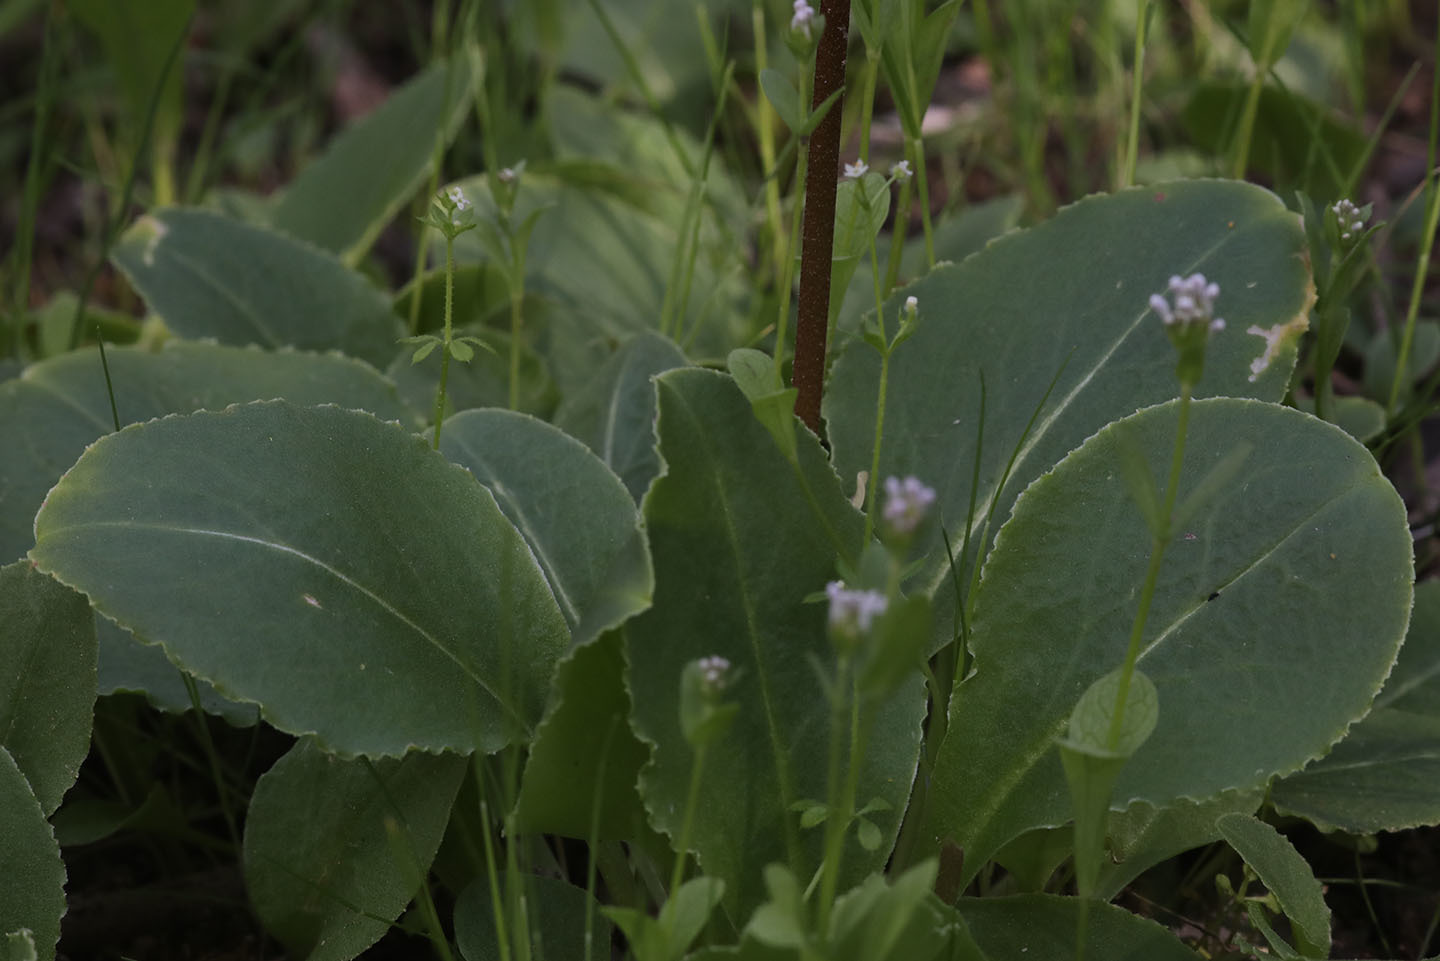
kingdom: Plantae
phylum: Tracheophyta
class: Magnoliopsida
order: Ericales
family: Primulaceae
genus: Dodecatheon
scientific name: Dodecatheon hendersonii
